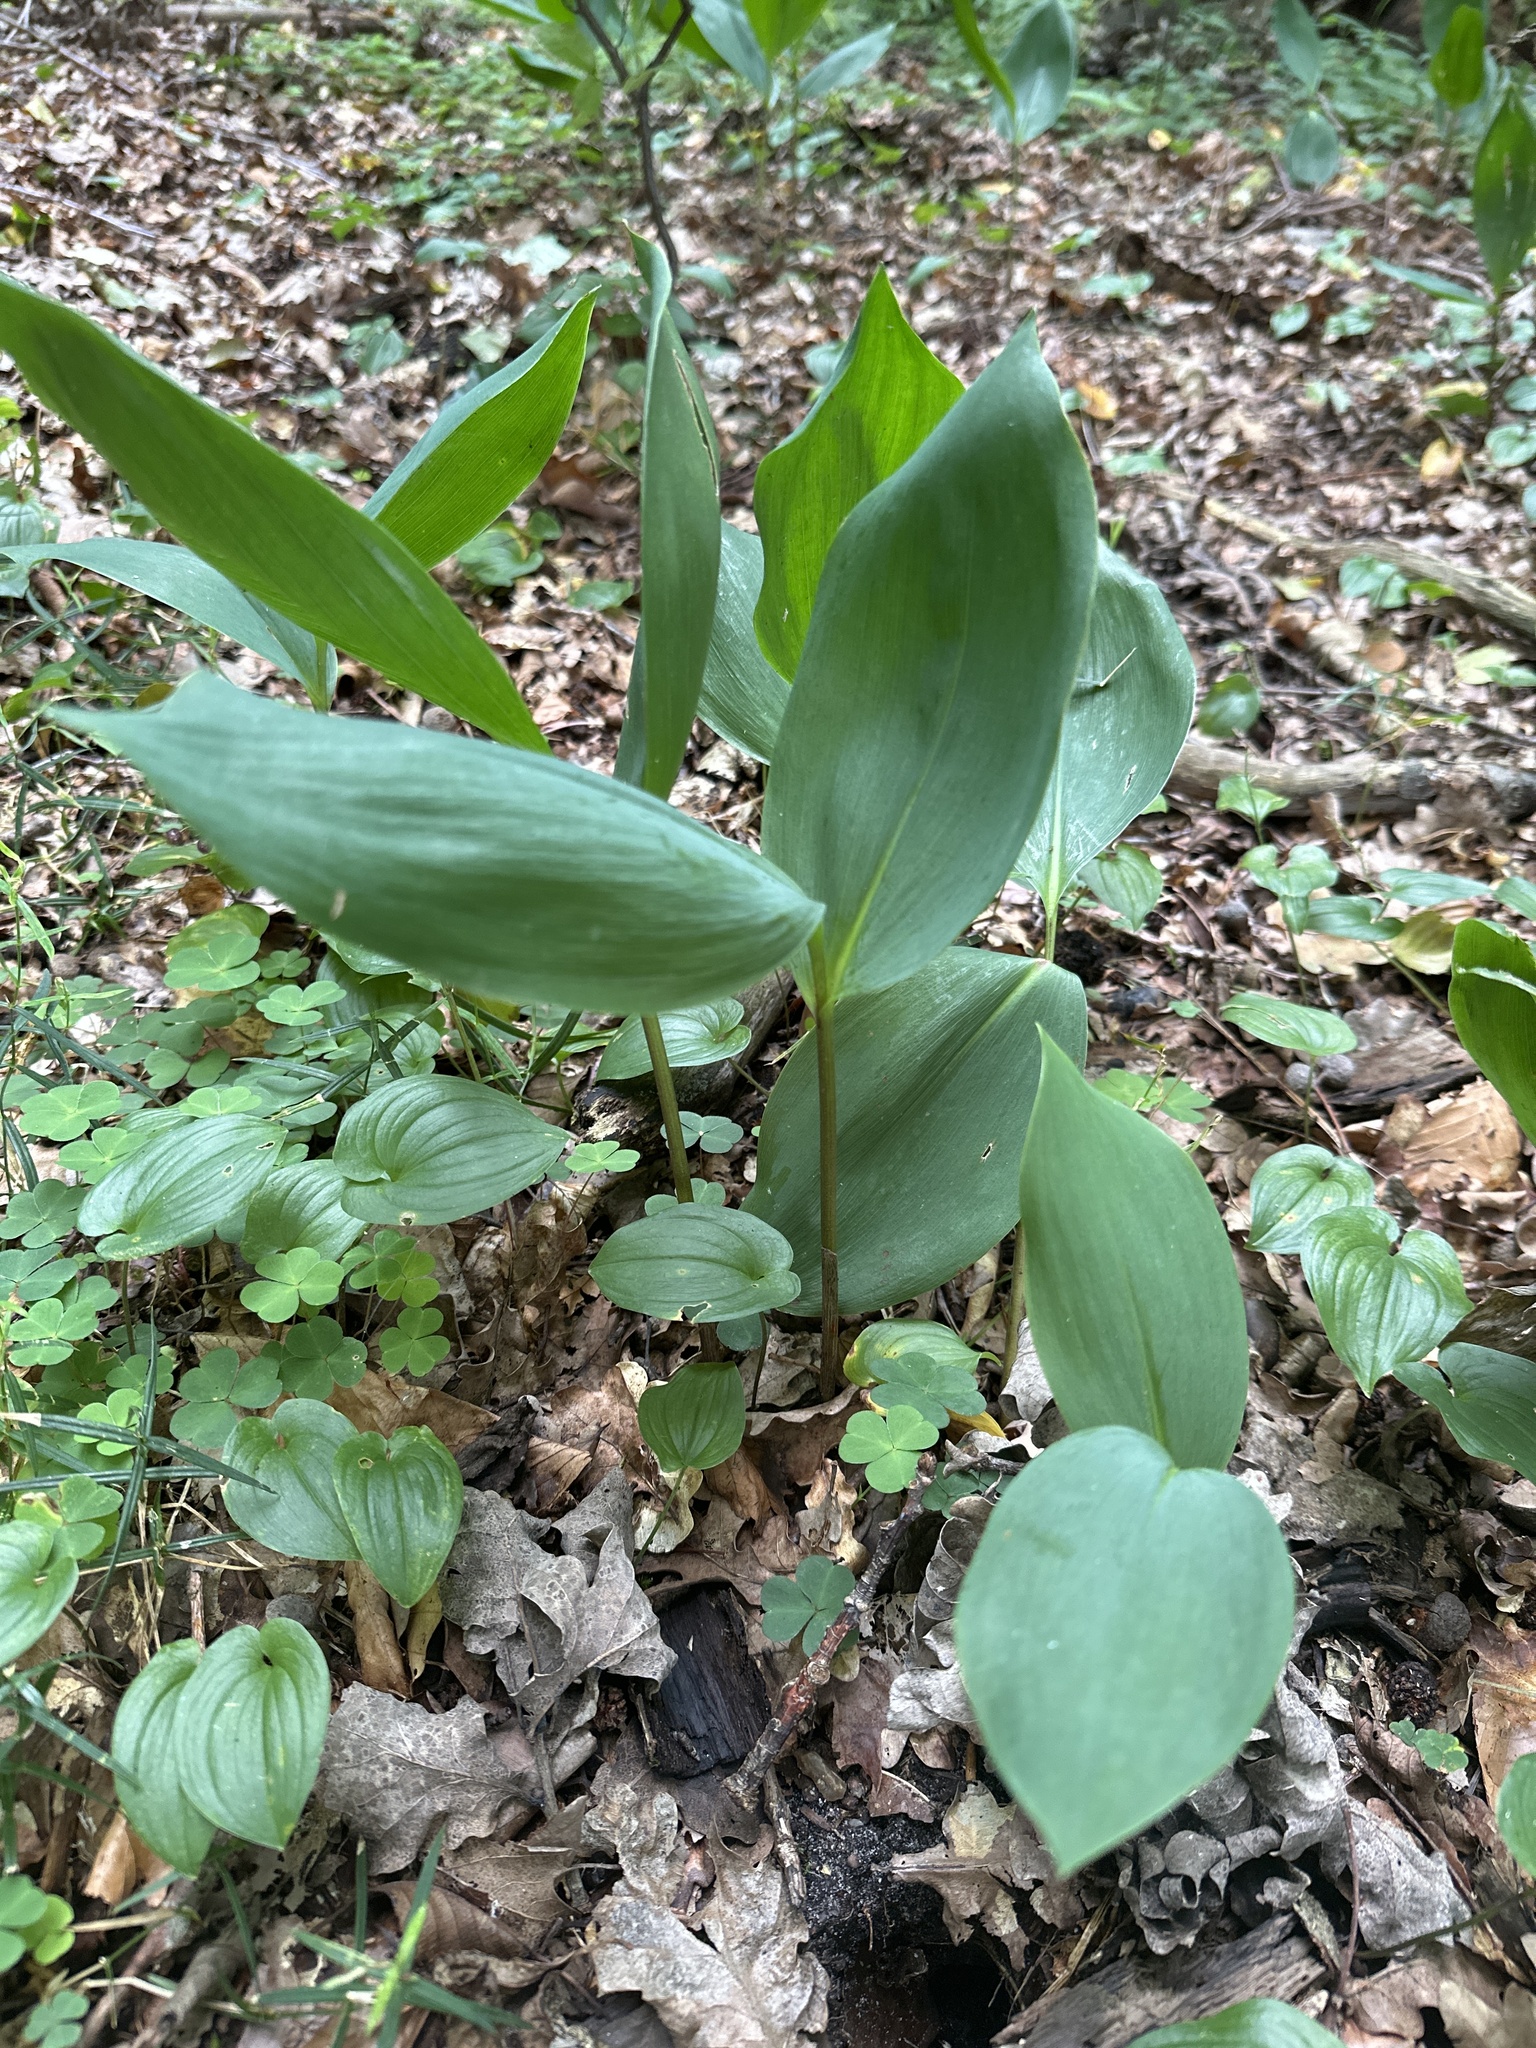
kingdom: Plantae
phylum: Tracheophyta
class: Liliopsida
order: Asparagales
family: Asparagaceae
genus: Convallaria
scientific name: Convallaria majalis
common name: Lily-of-the-valley
